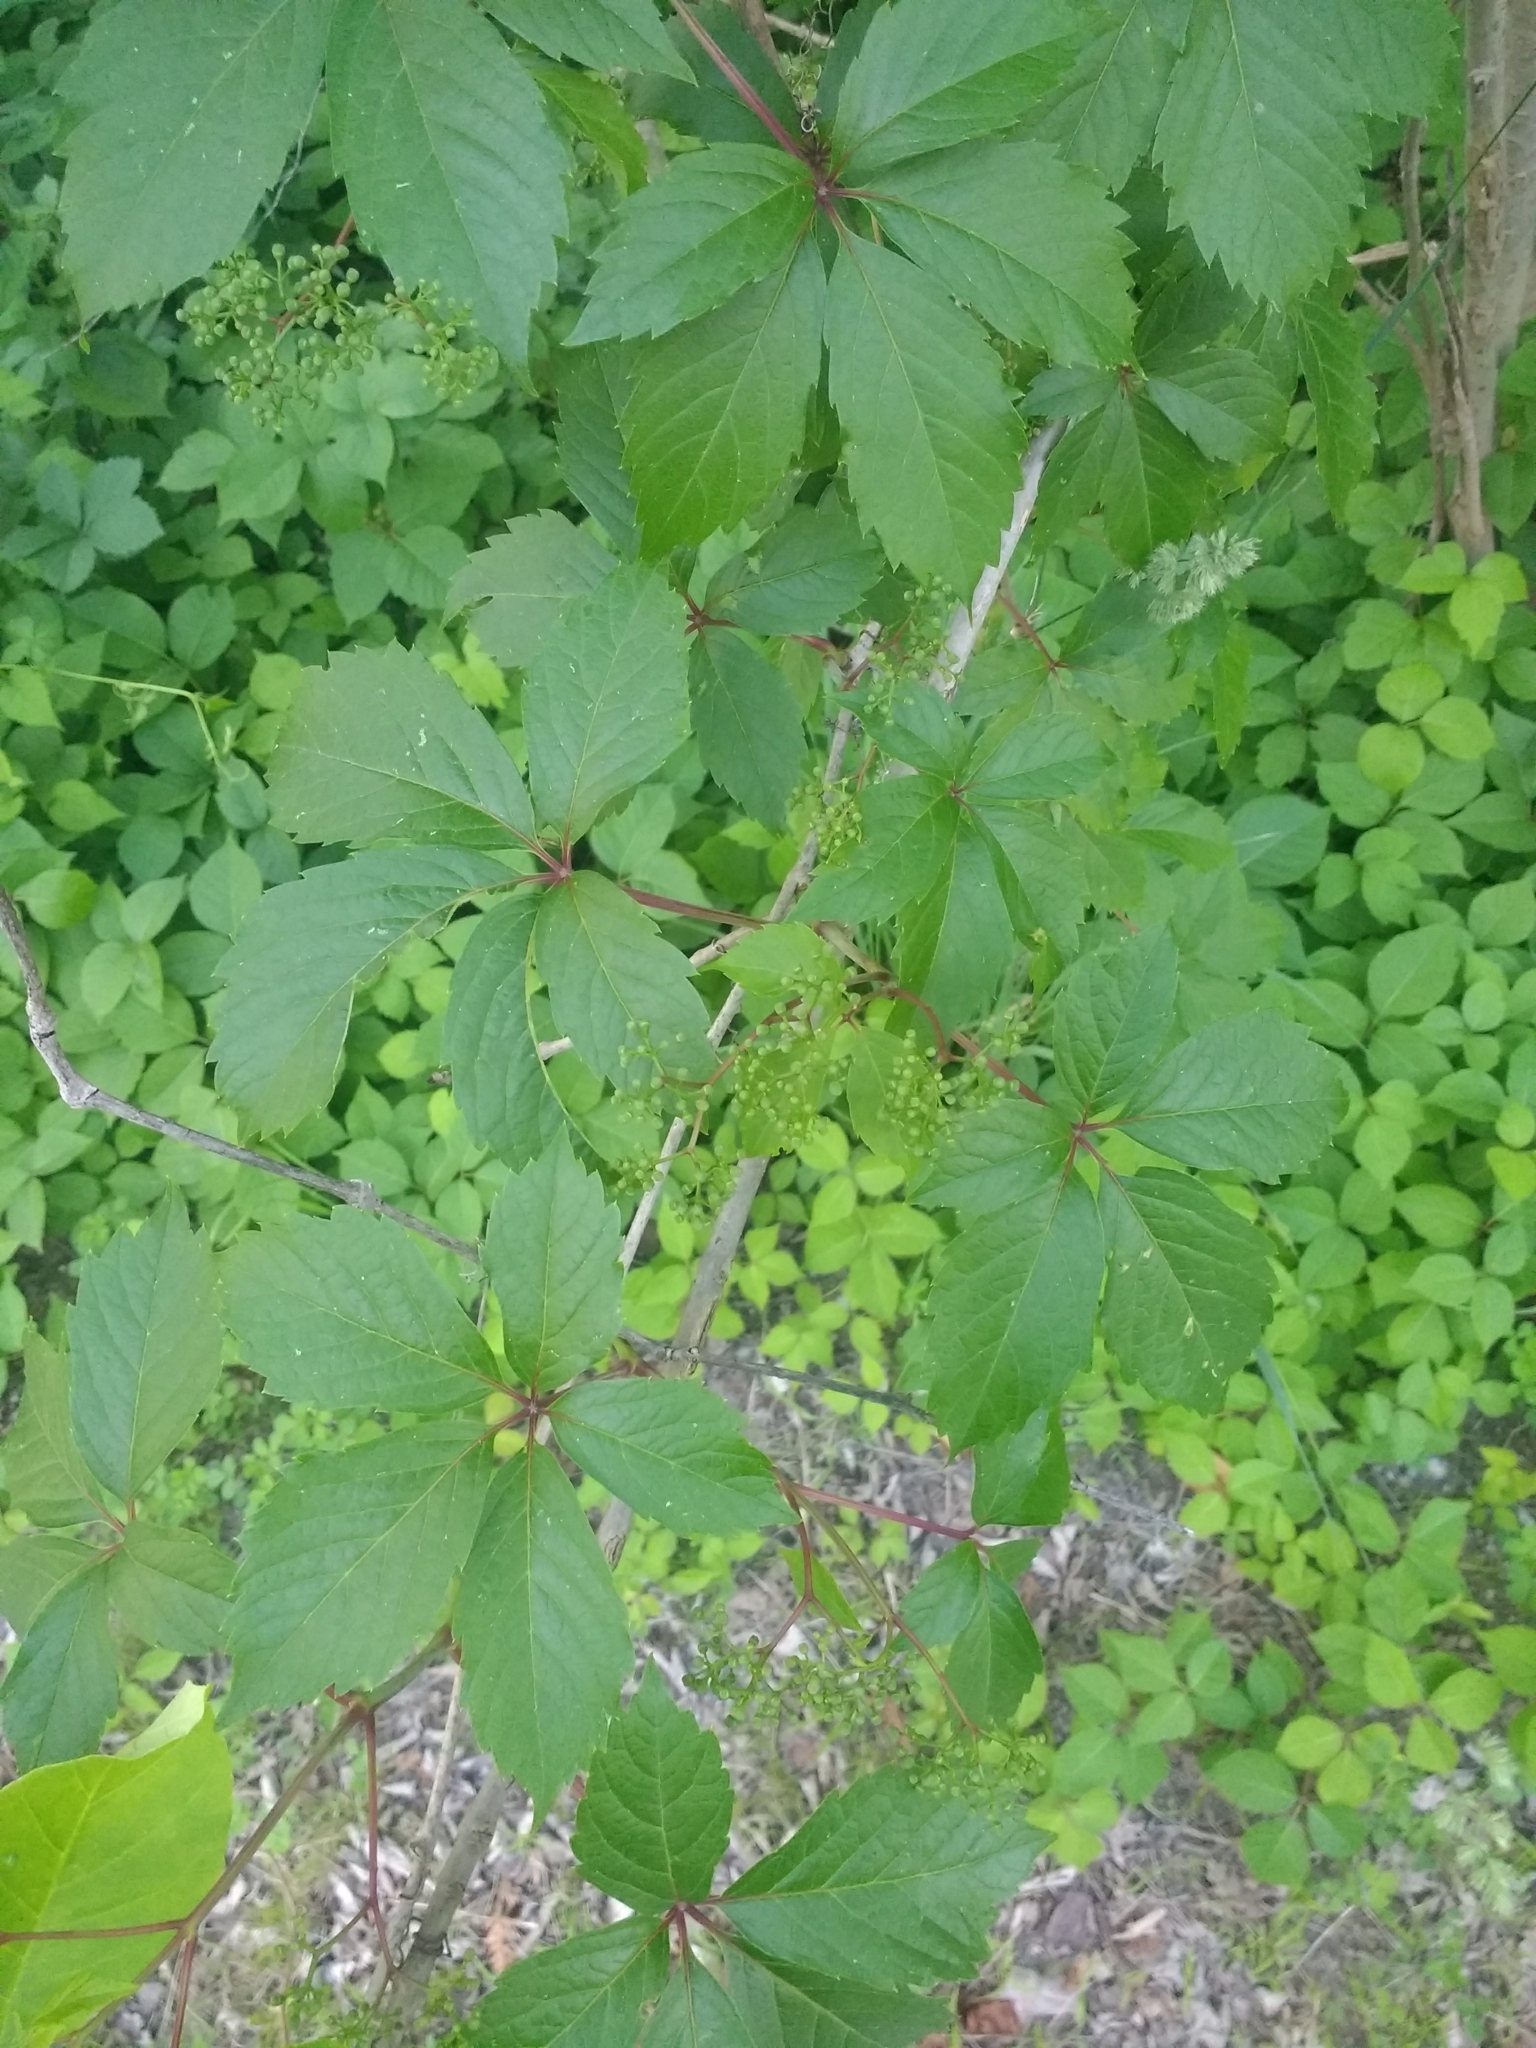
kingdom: Plantae
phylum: Tracheophyta
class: Magnoliopsida
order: Vitales
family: Vitaceae
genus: Parthenocissus
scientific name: Parthenocissus quinquefolia
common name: Virginia-creeper
